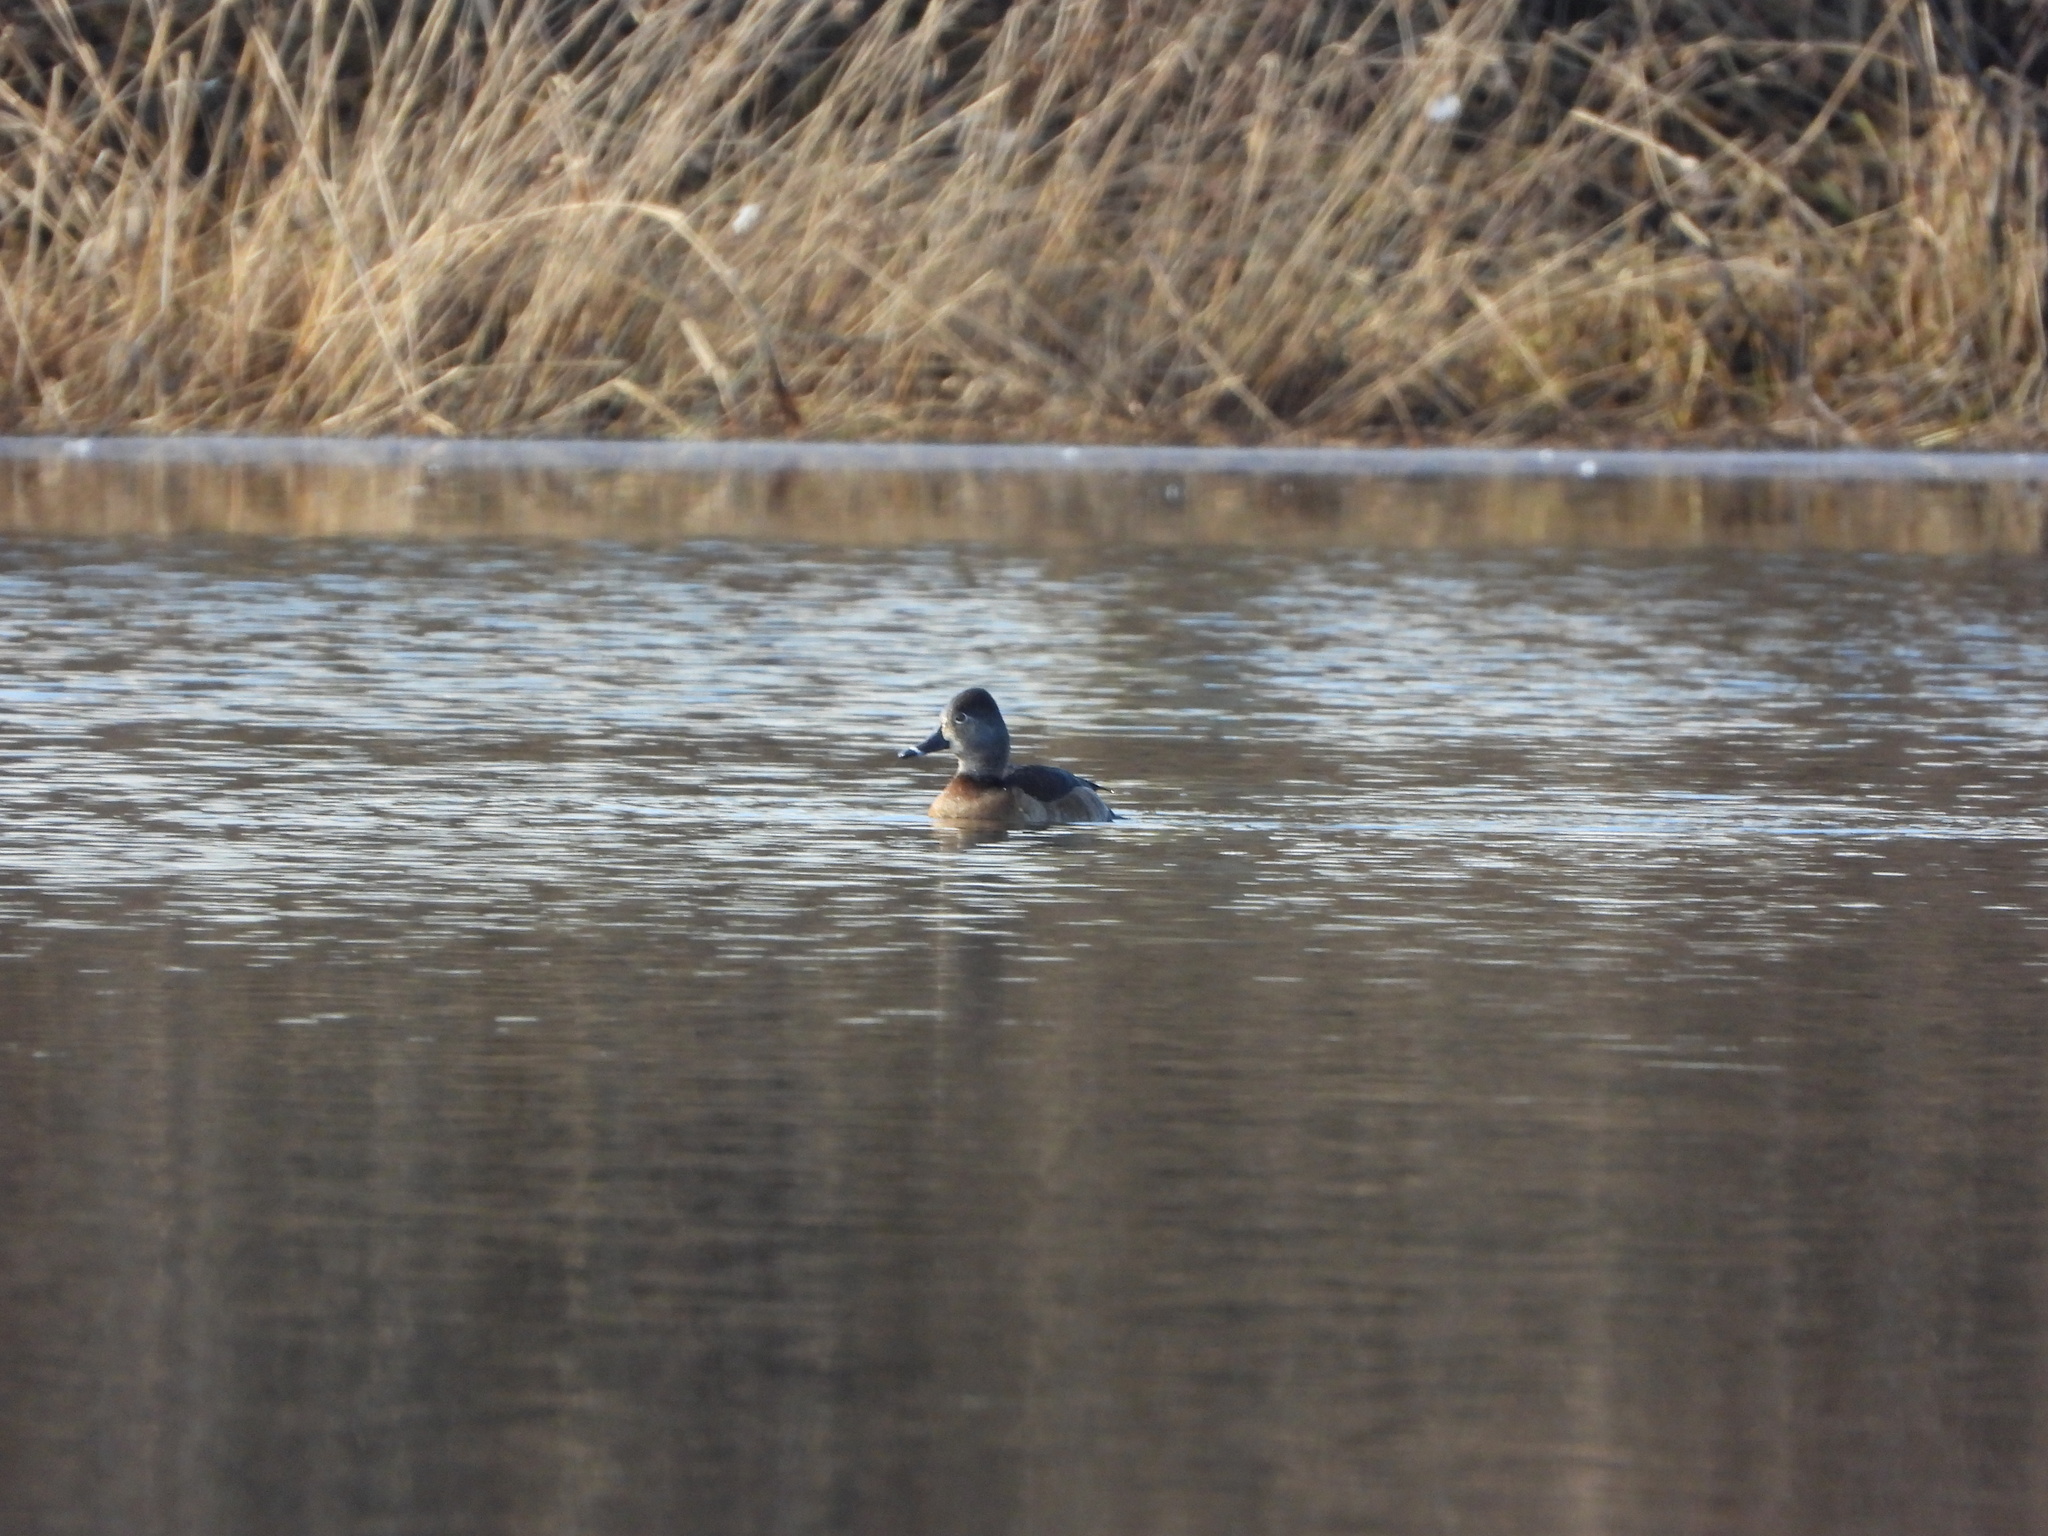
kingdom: Animalia
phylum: Chordata
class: Aves
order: Anseriformes
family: Anatidae
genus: Aythya
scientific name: Aythya collaris
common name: Ring-necked duck
